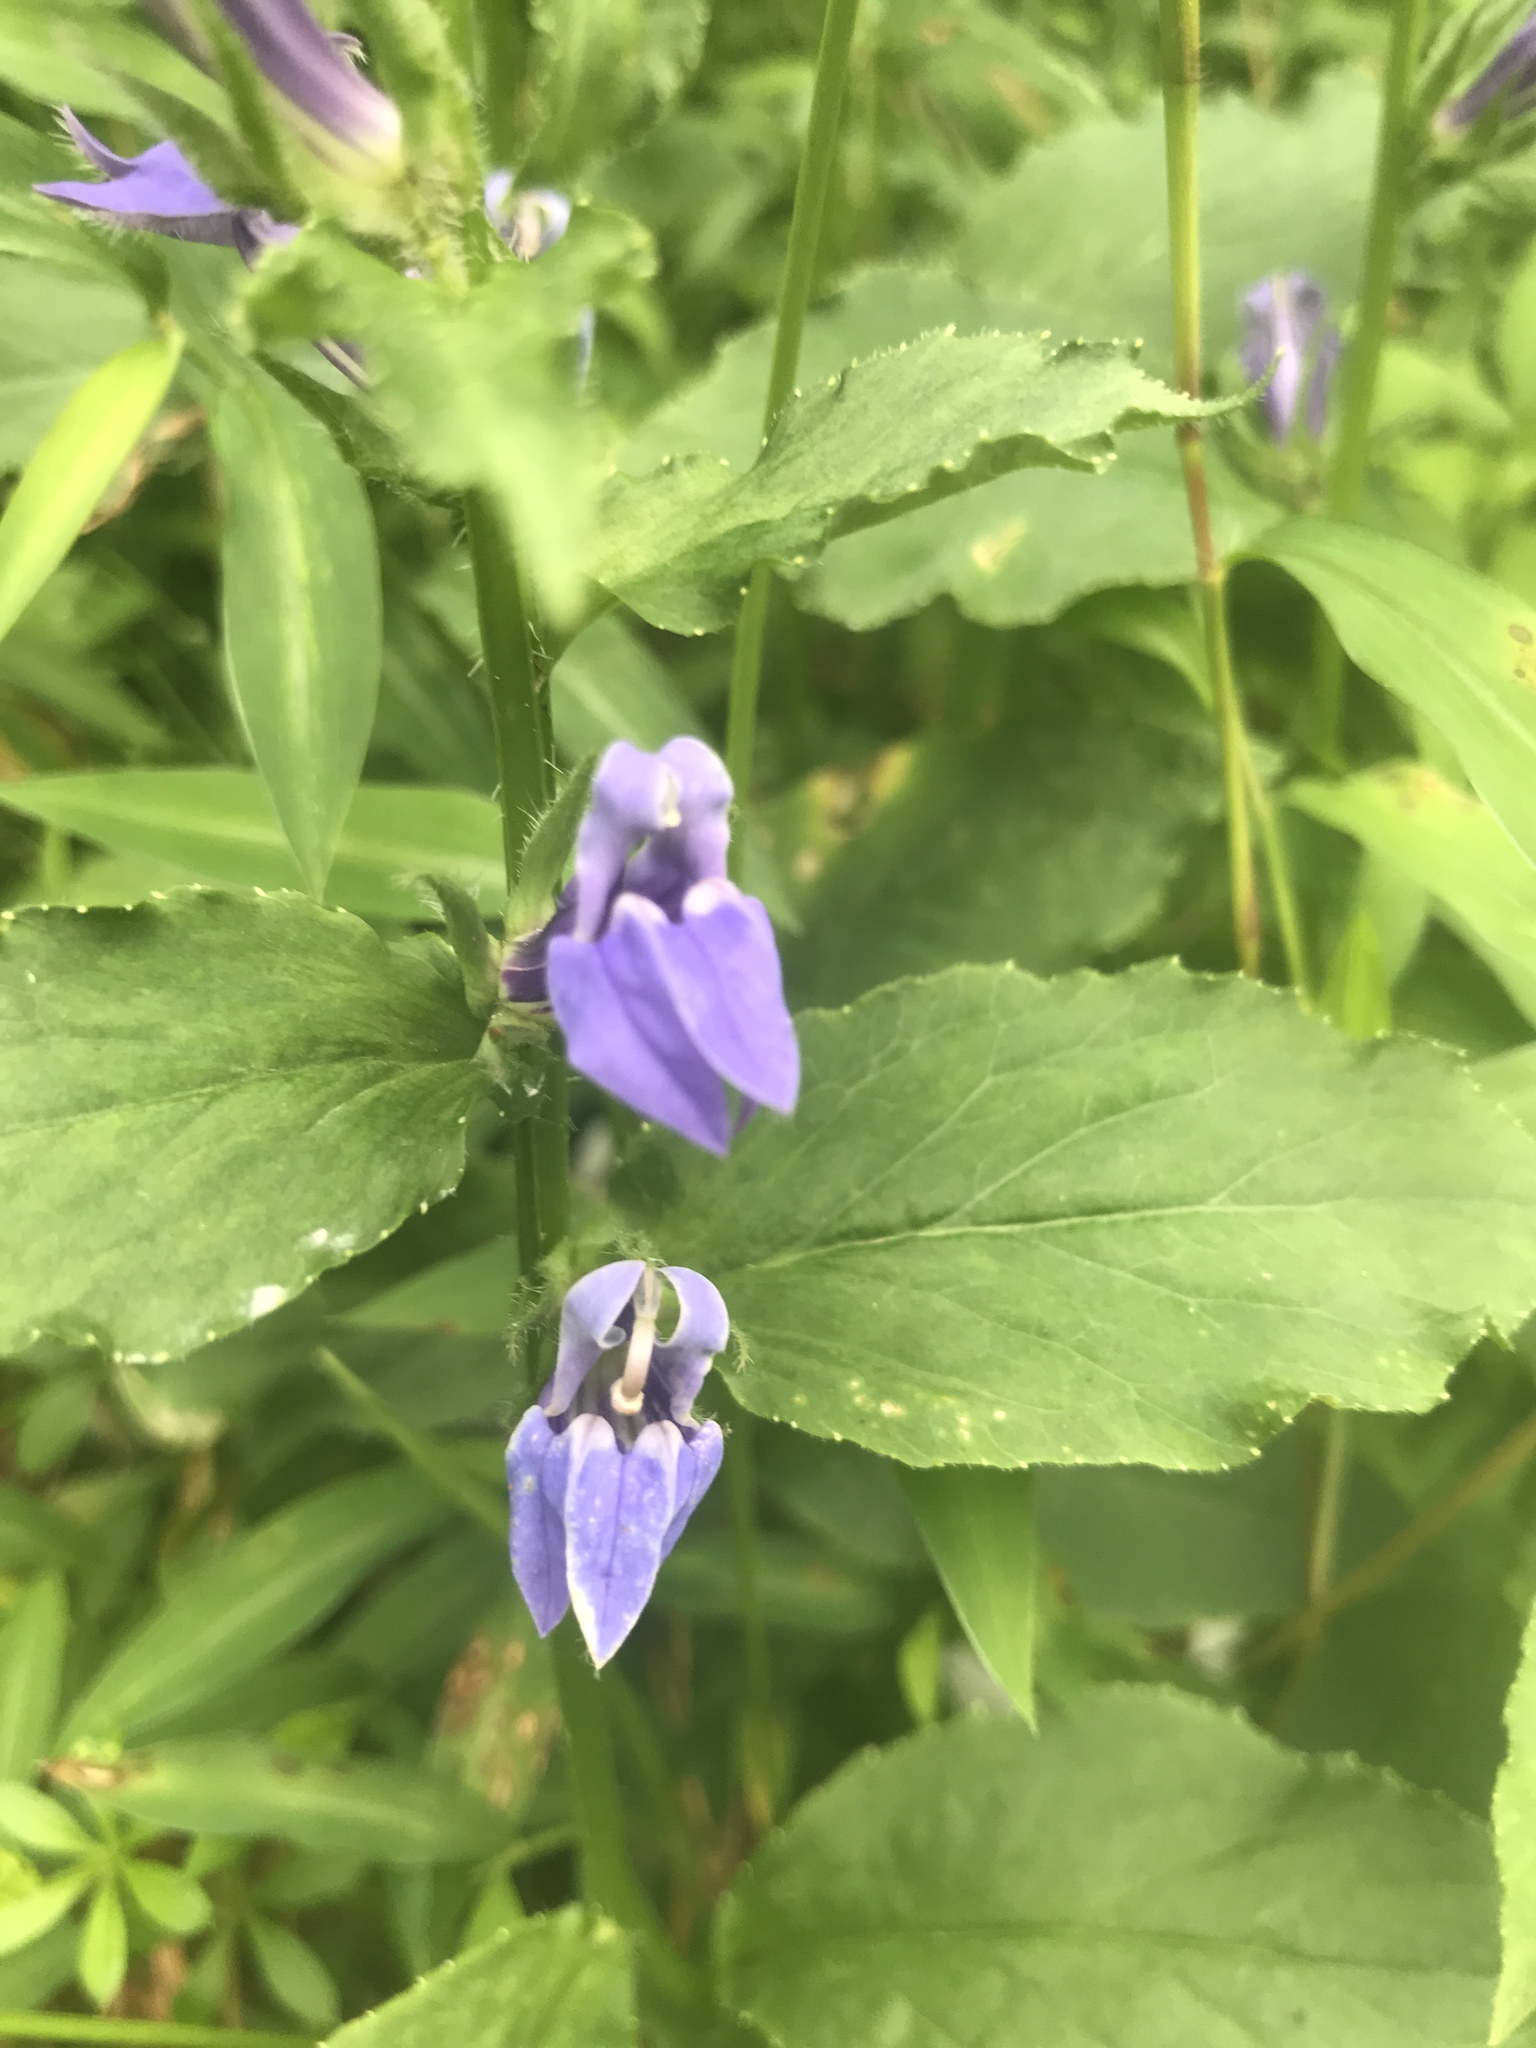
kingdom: Plantae
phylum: Tracheophyta
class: Magnoliopsida
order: Asterales
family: Campanulaceae
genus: Lobelia
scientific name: Lobelia siphilitica
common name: Great lobelia
